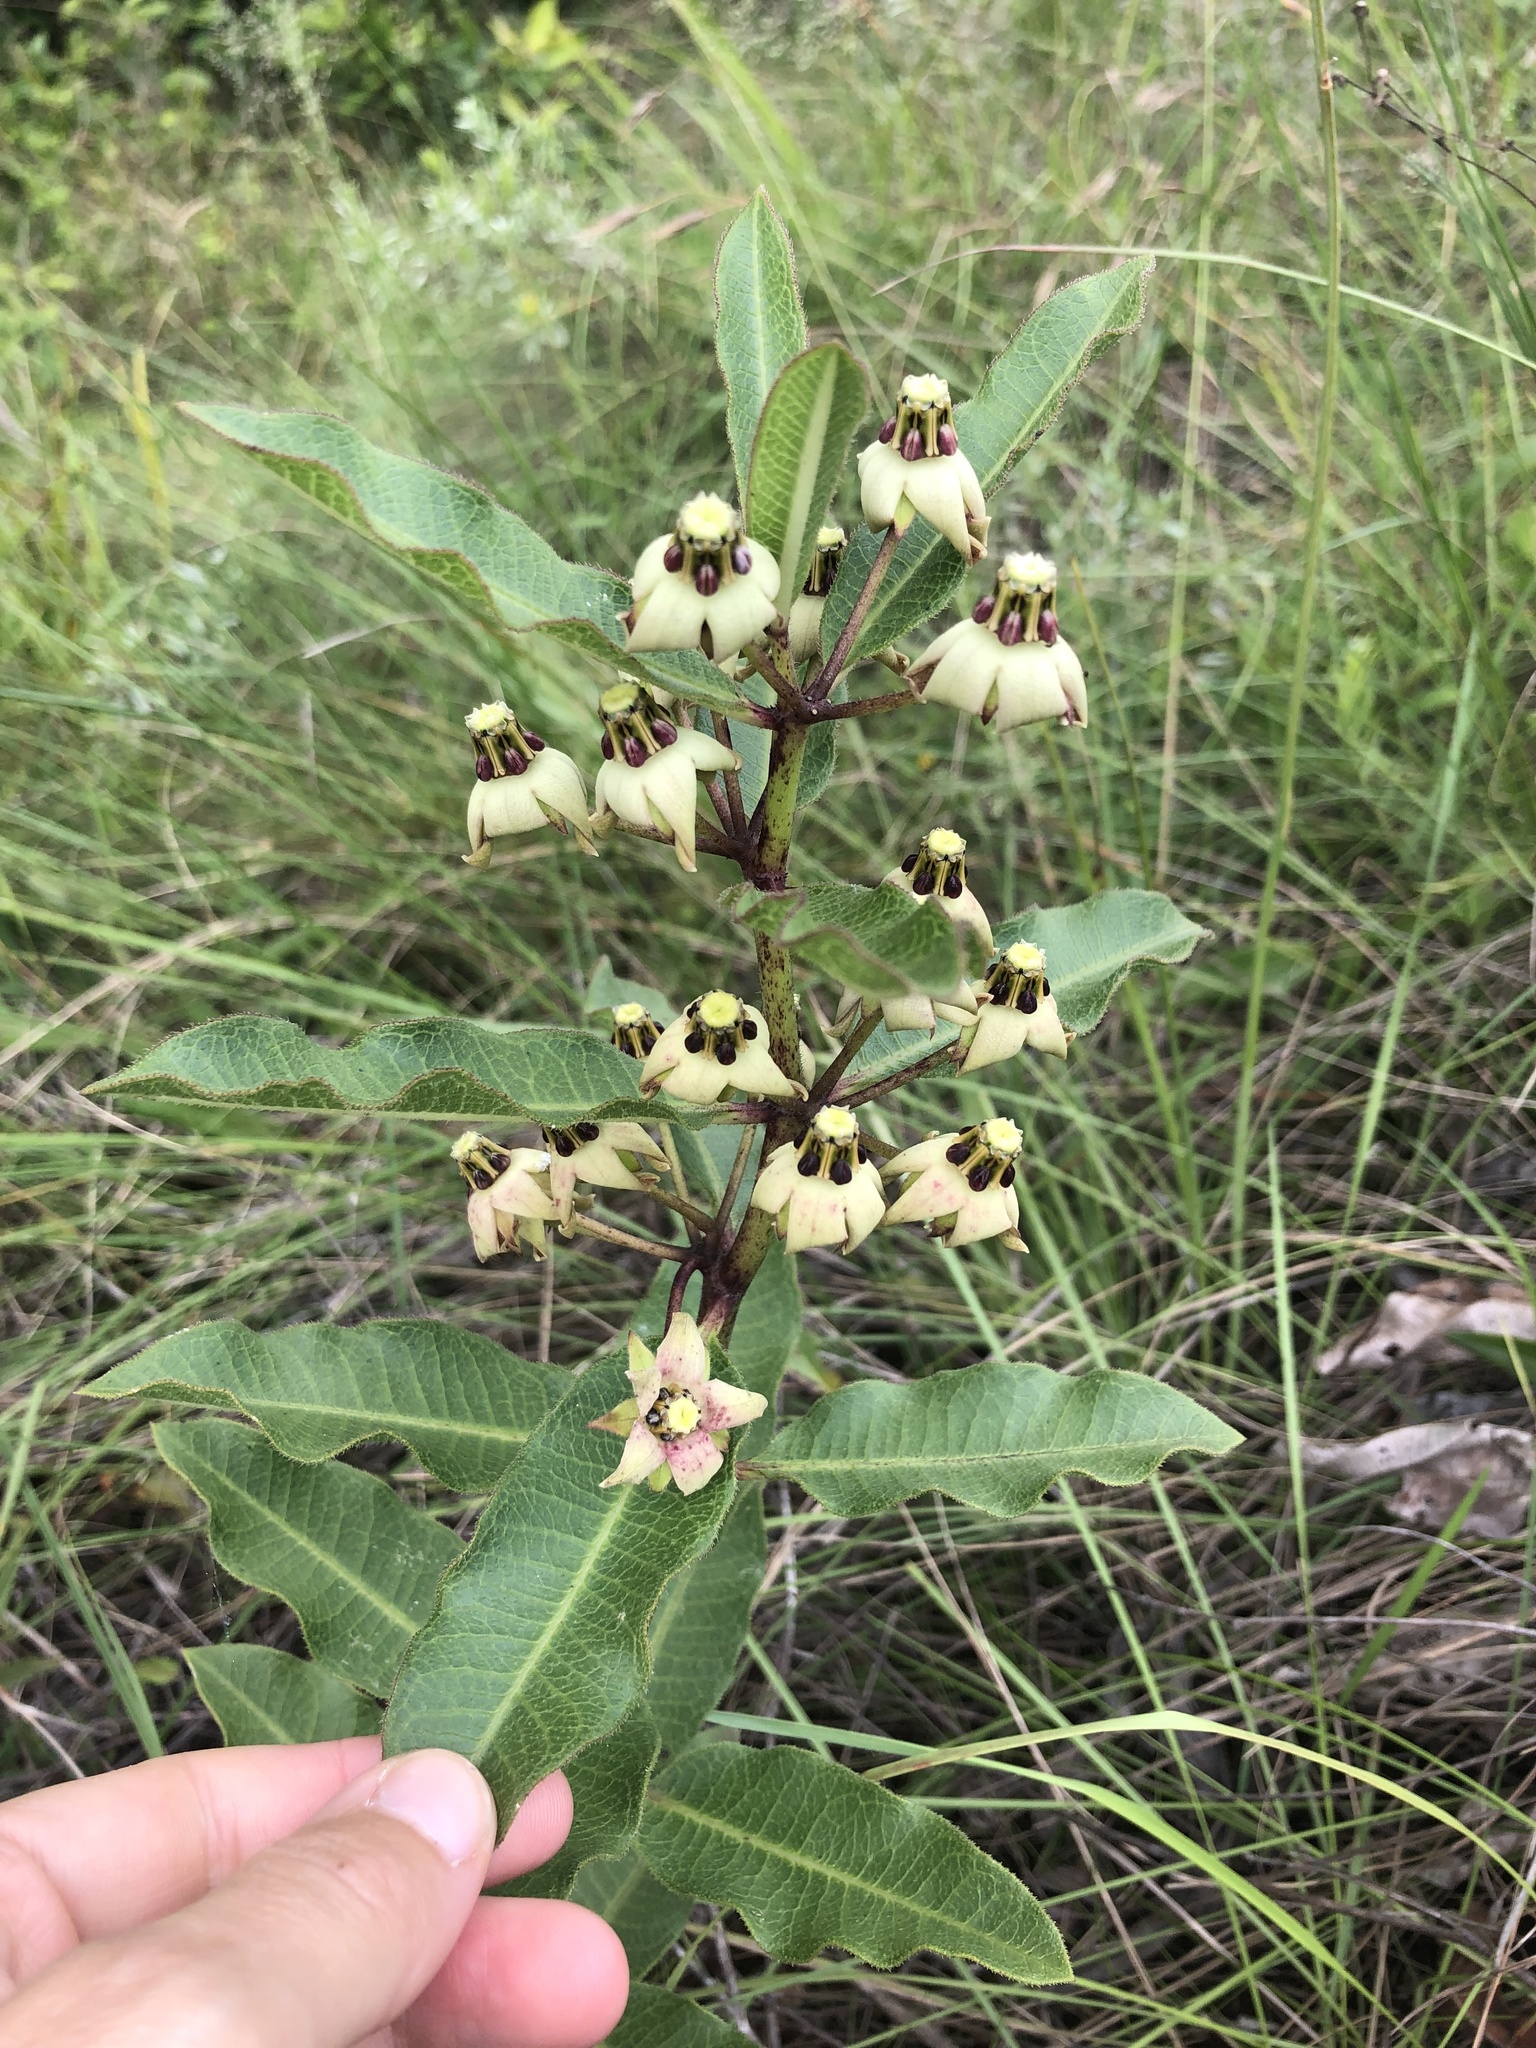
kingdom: Plantae
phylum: Tracheophyta
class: Magnoliopsida
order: Gentianales
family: Apocynaceae
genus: Pachycarpus
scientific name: Pachycarpus asperifolius
